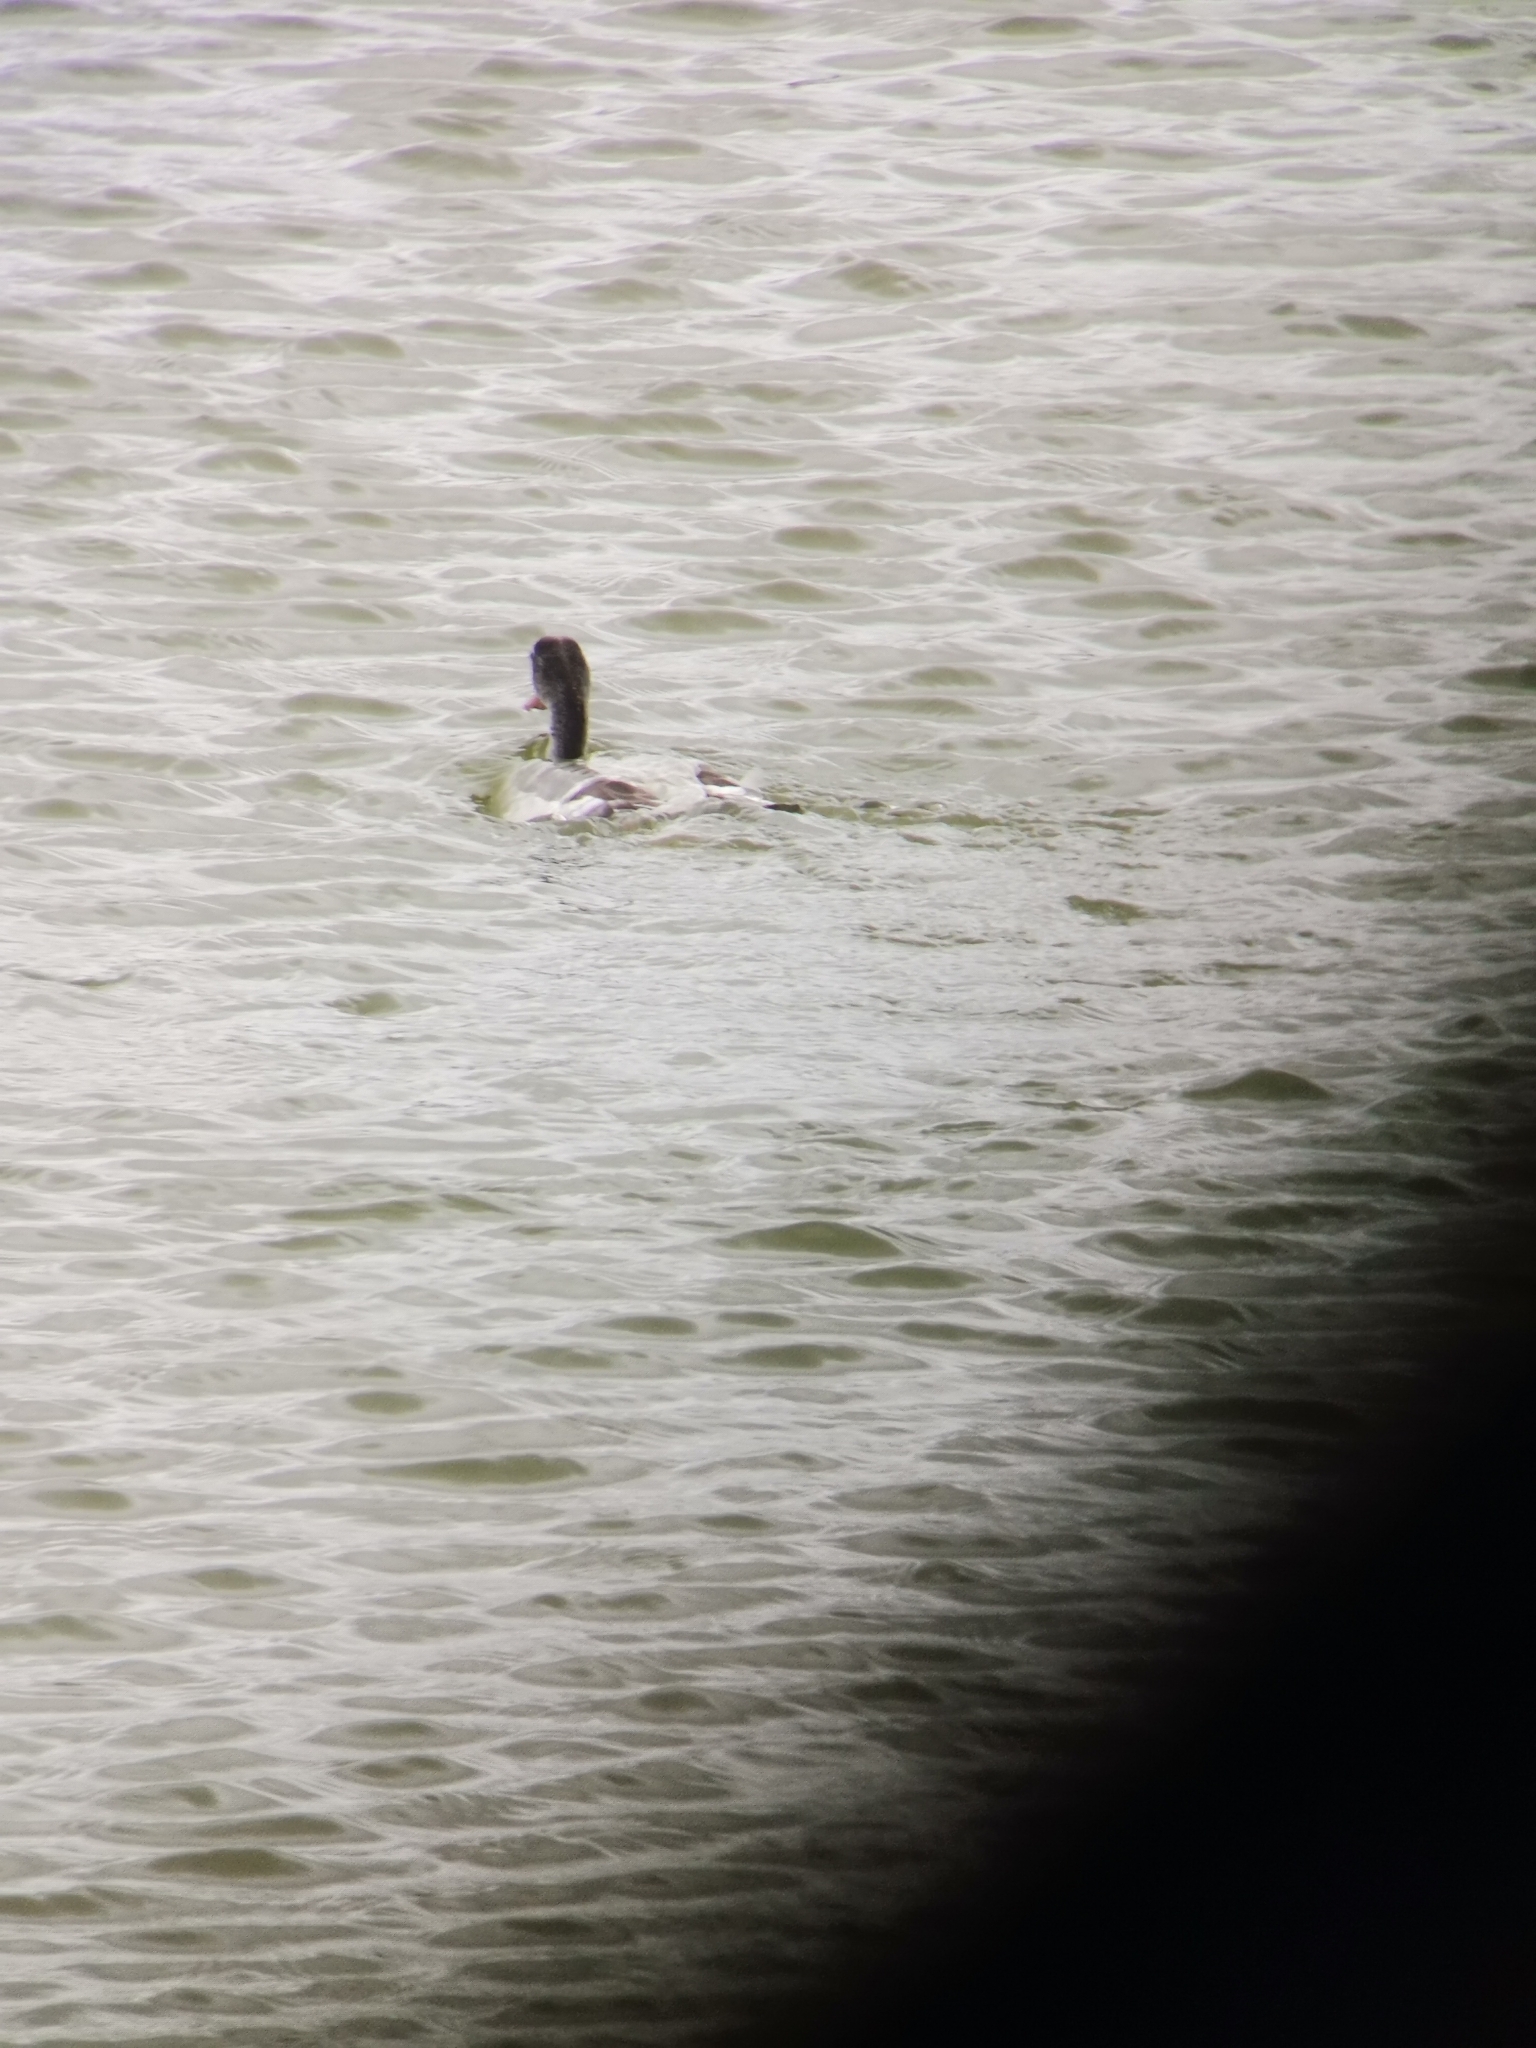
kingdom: Animalia
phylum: Chordata
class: Aves
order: Anseriformes
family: Anatidae
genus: Tadorna
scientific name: Tadorna tadorna
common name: Common shelduck
